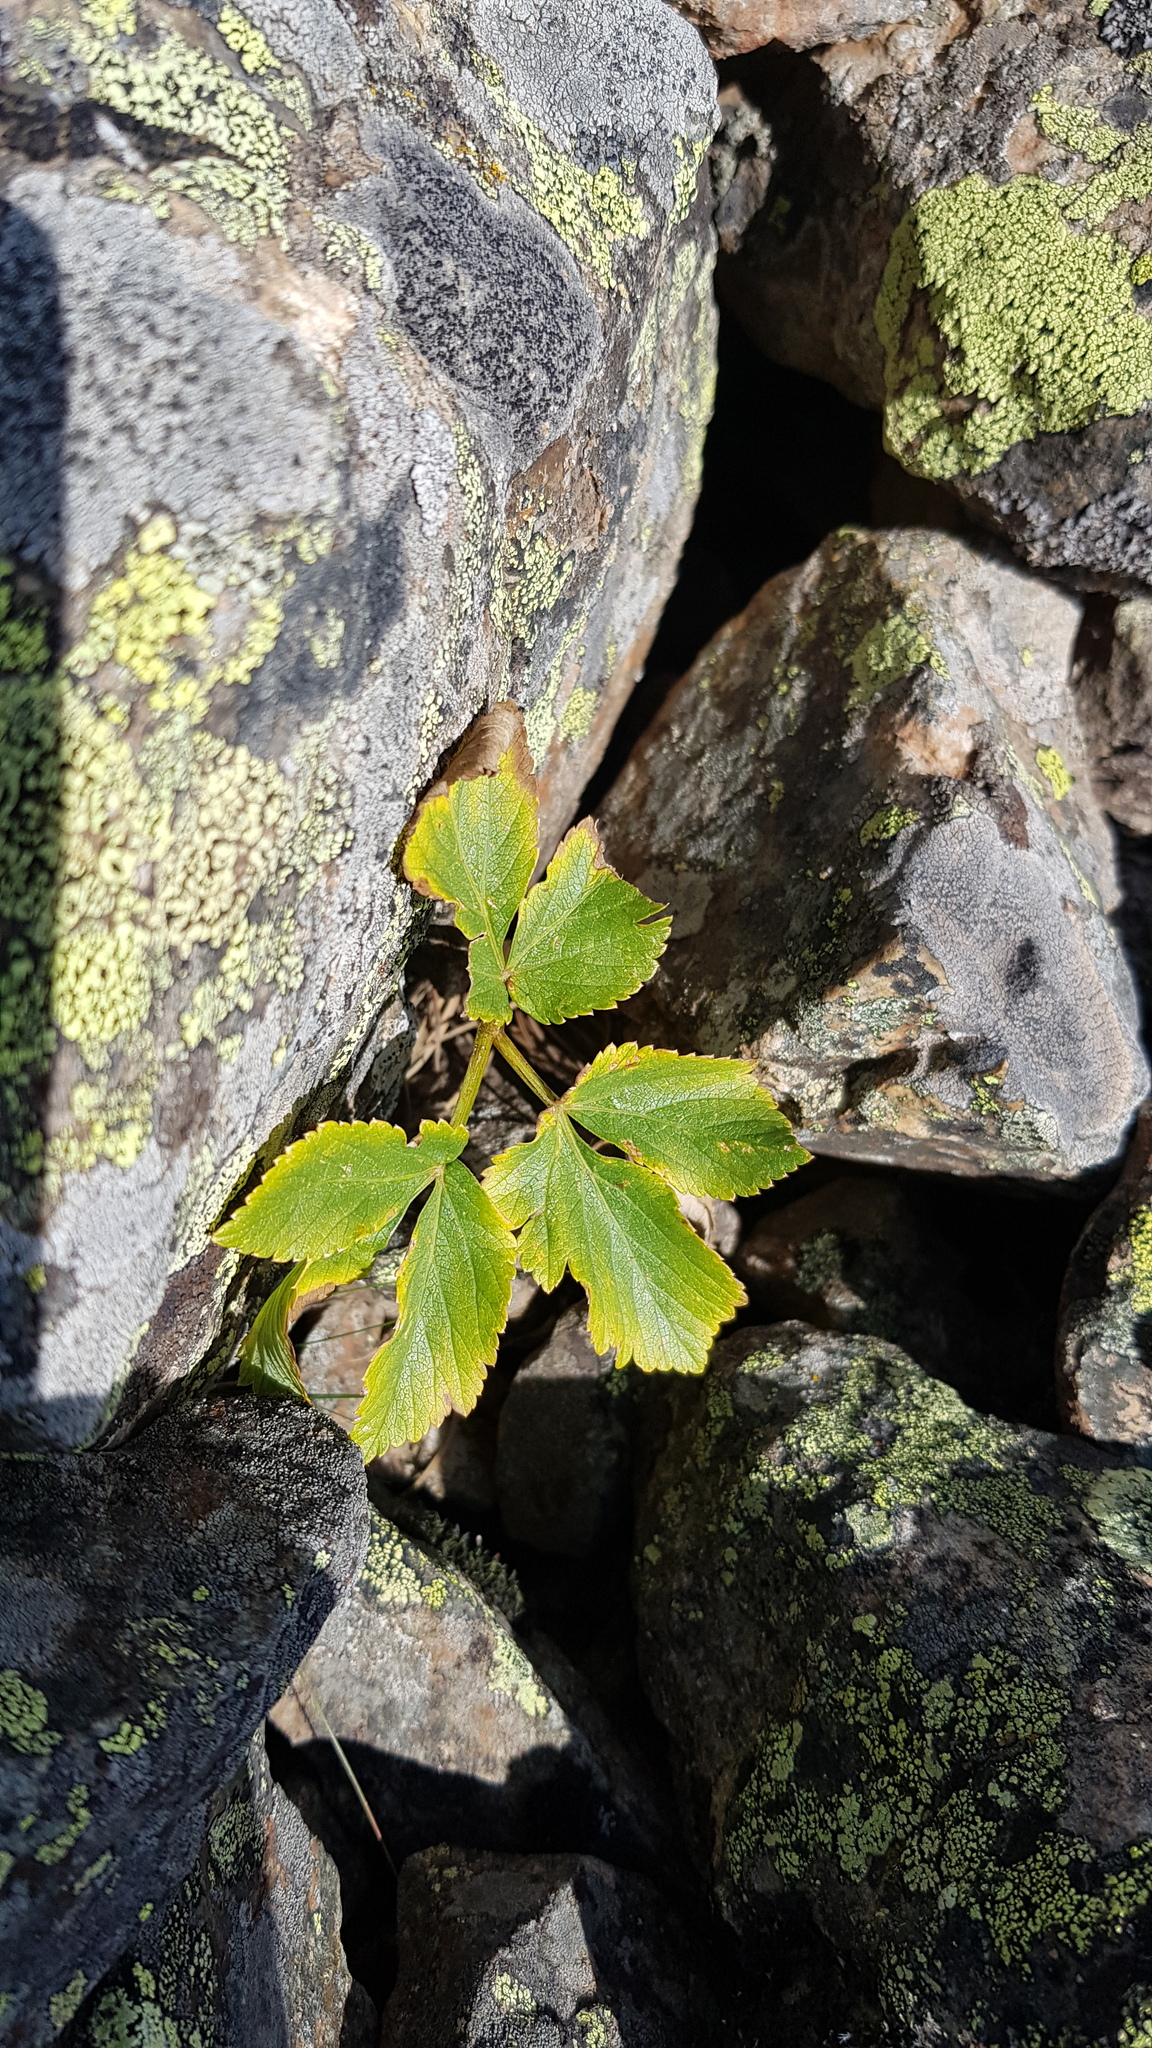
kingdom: Plantae
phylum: Tracheophyta
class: Magnoliopsida
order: Rosales
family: Rosaceae
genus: Rubus
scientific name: Rubus sachalinensis
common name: Red raspberry
